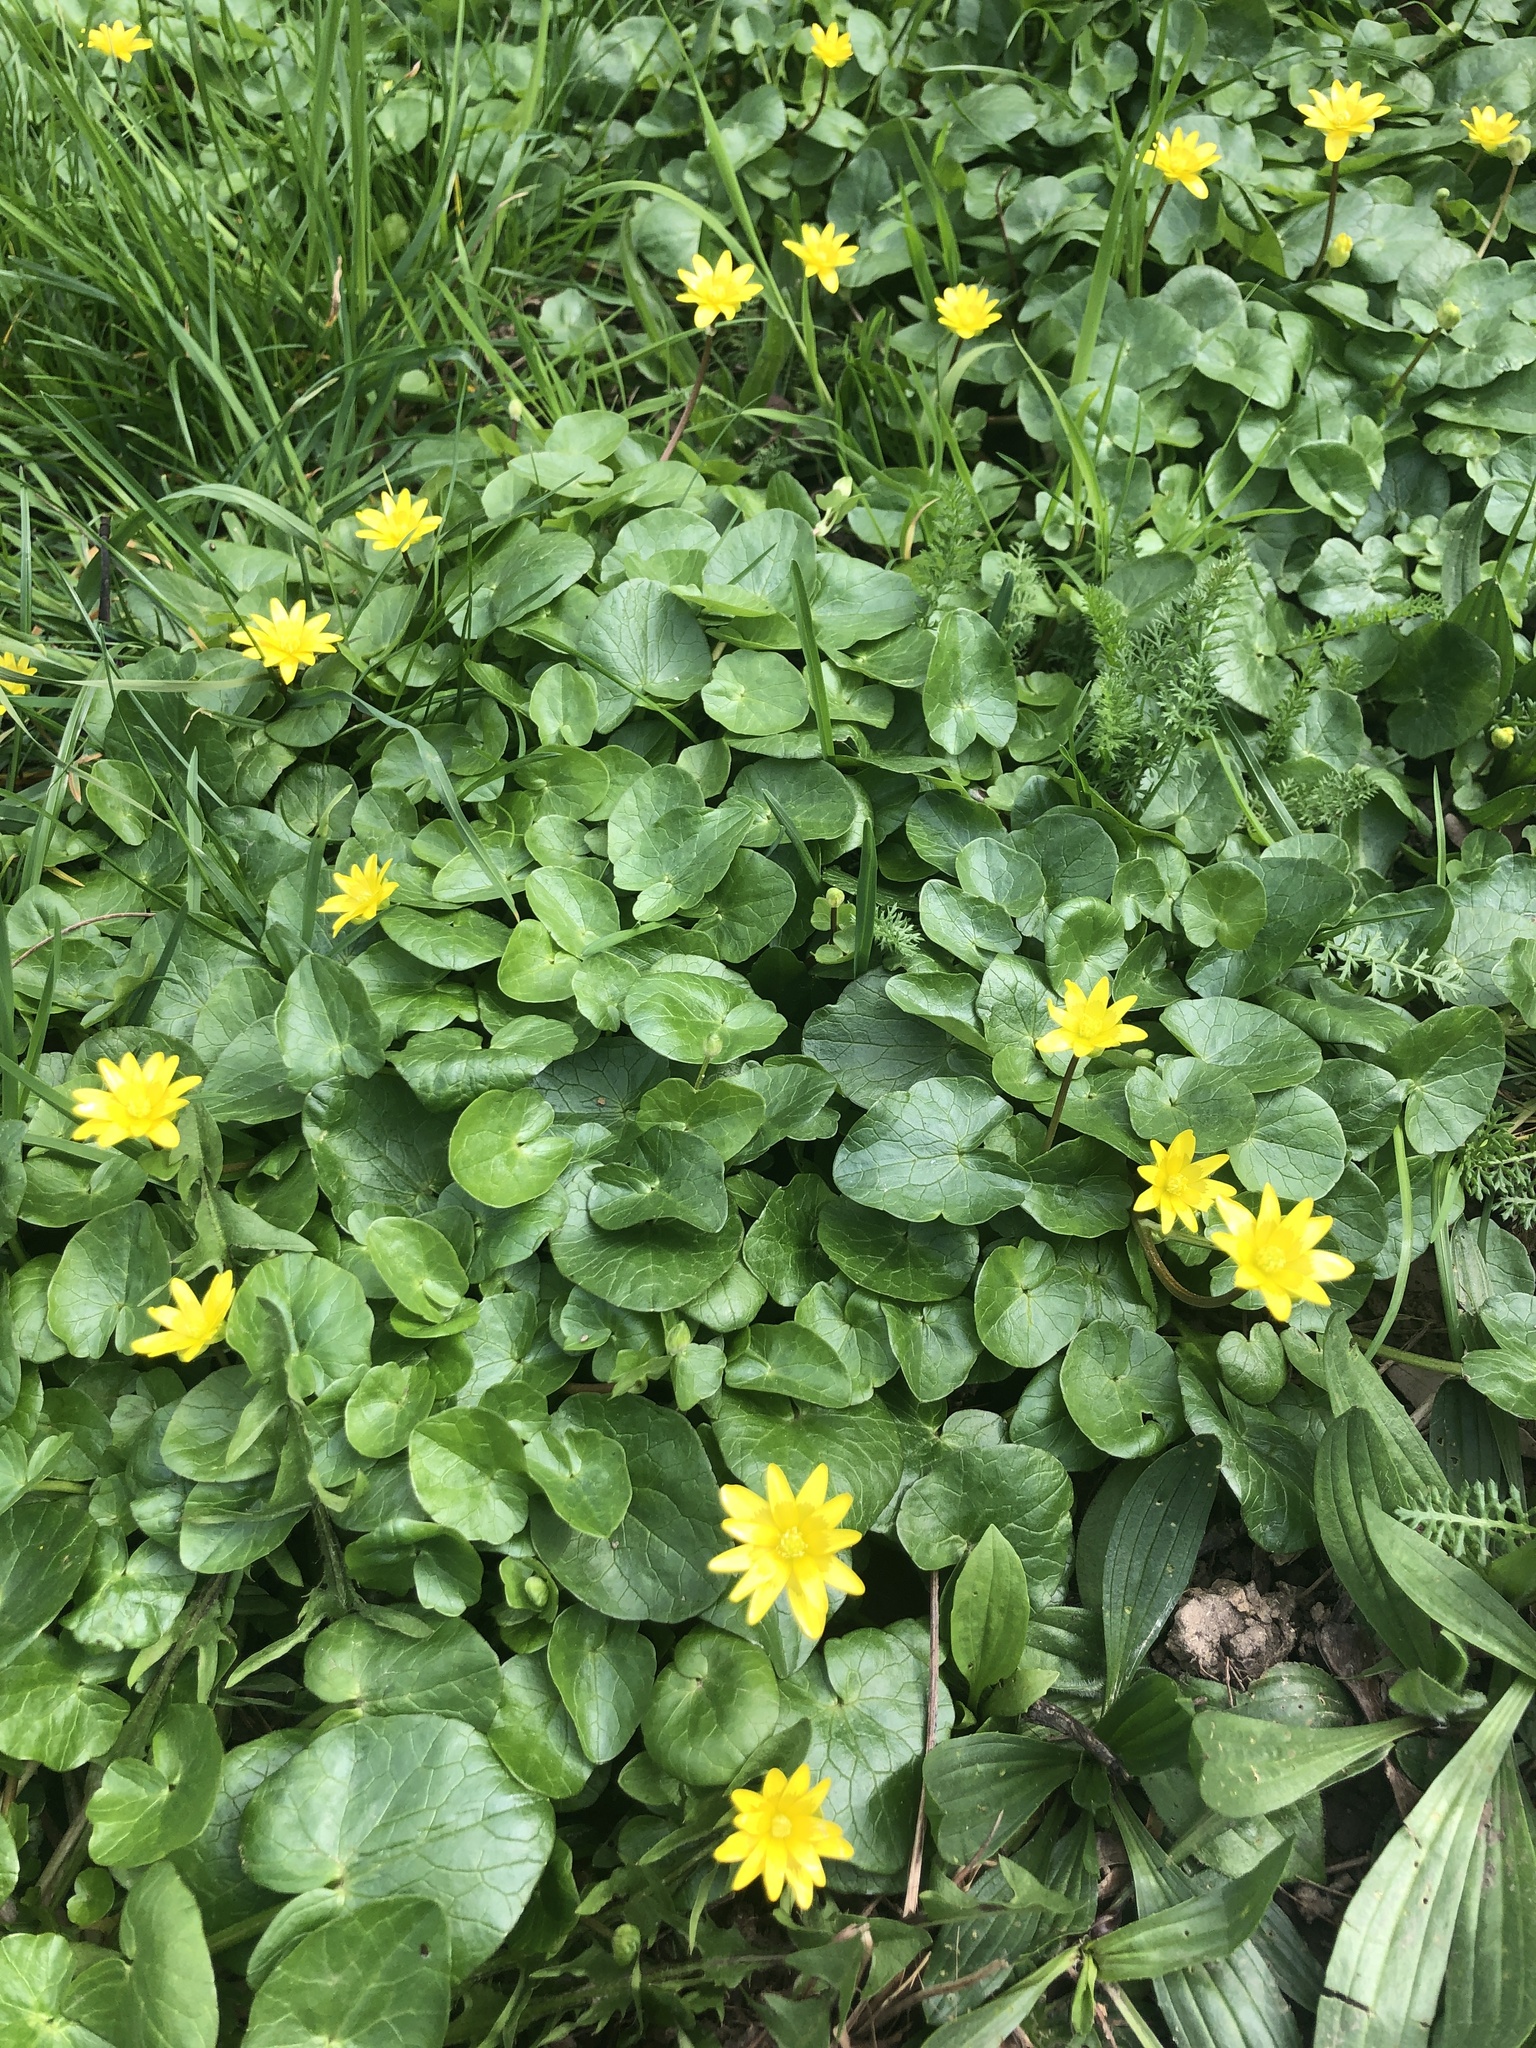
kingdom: Plantae
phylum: Tracheophyta
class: Magnoliopsida
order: Ranunculales
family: Ranunculaceae
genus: Ficaria
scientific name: Ficaria verna
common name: Lesser celandine
